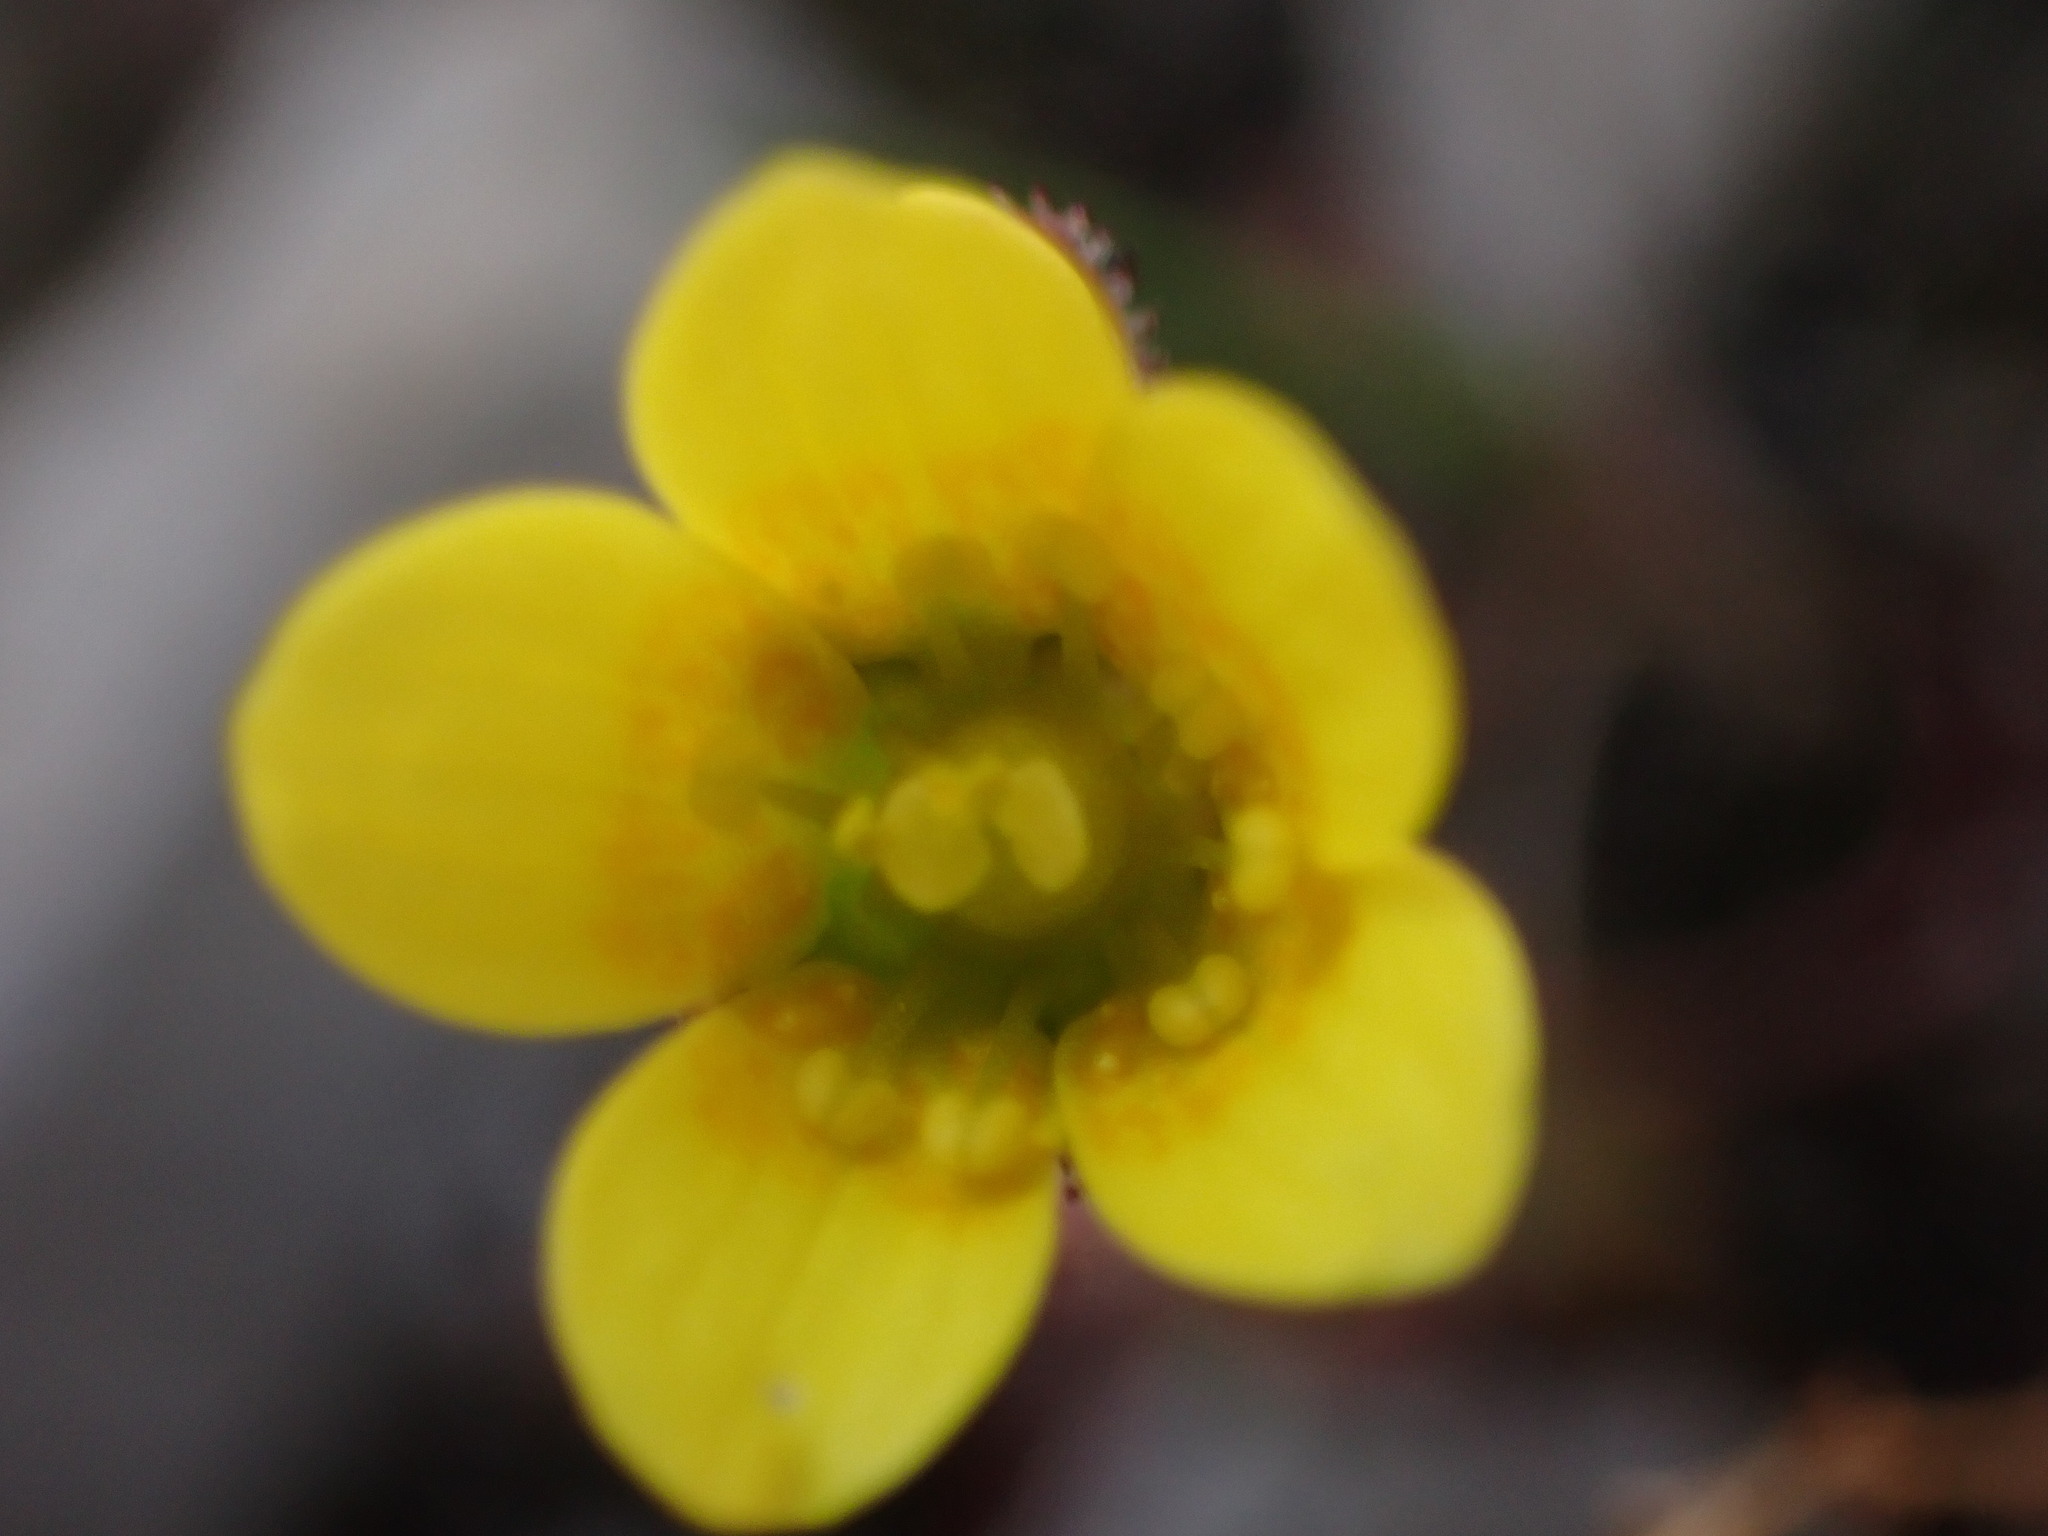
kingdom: Plantae
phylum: Tracheophyta
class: Magnoliopsida
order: Saxifragales
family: Saxifragaceae
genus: Saxifraga
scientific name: Saxifraga flagellaris
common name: Spider saxifrage
